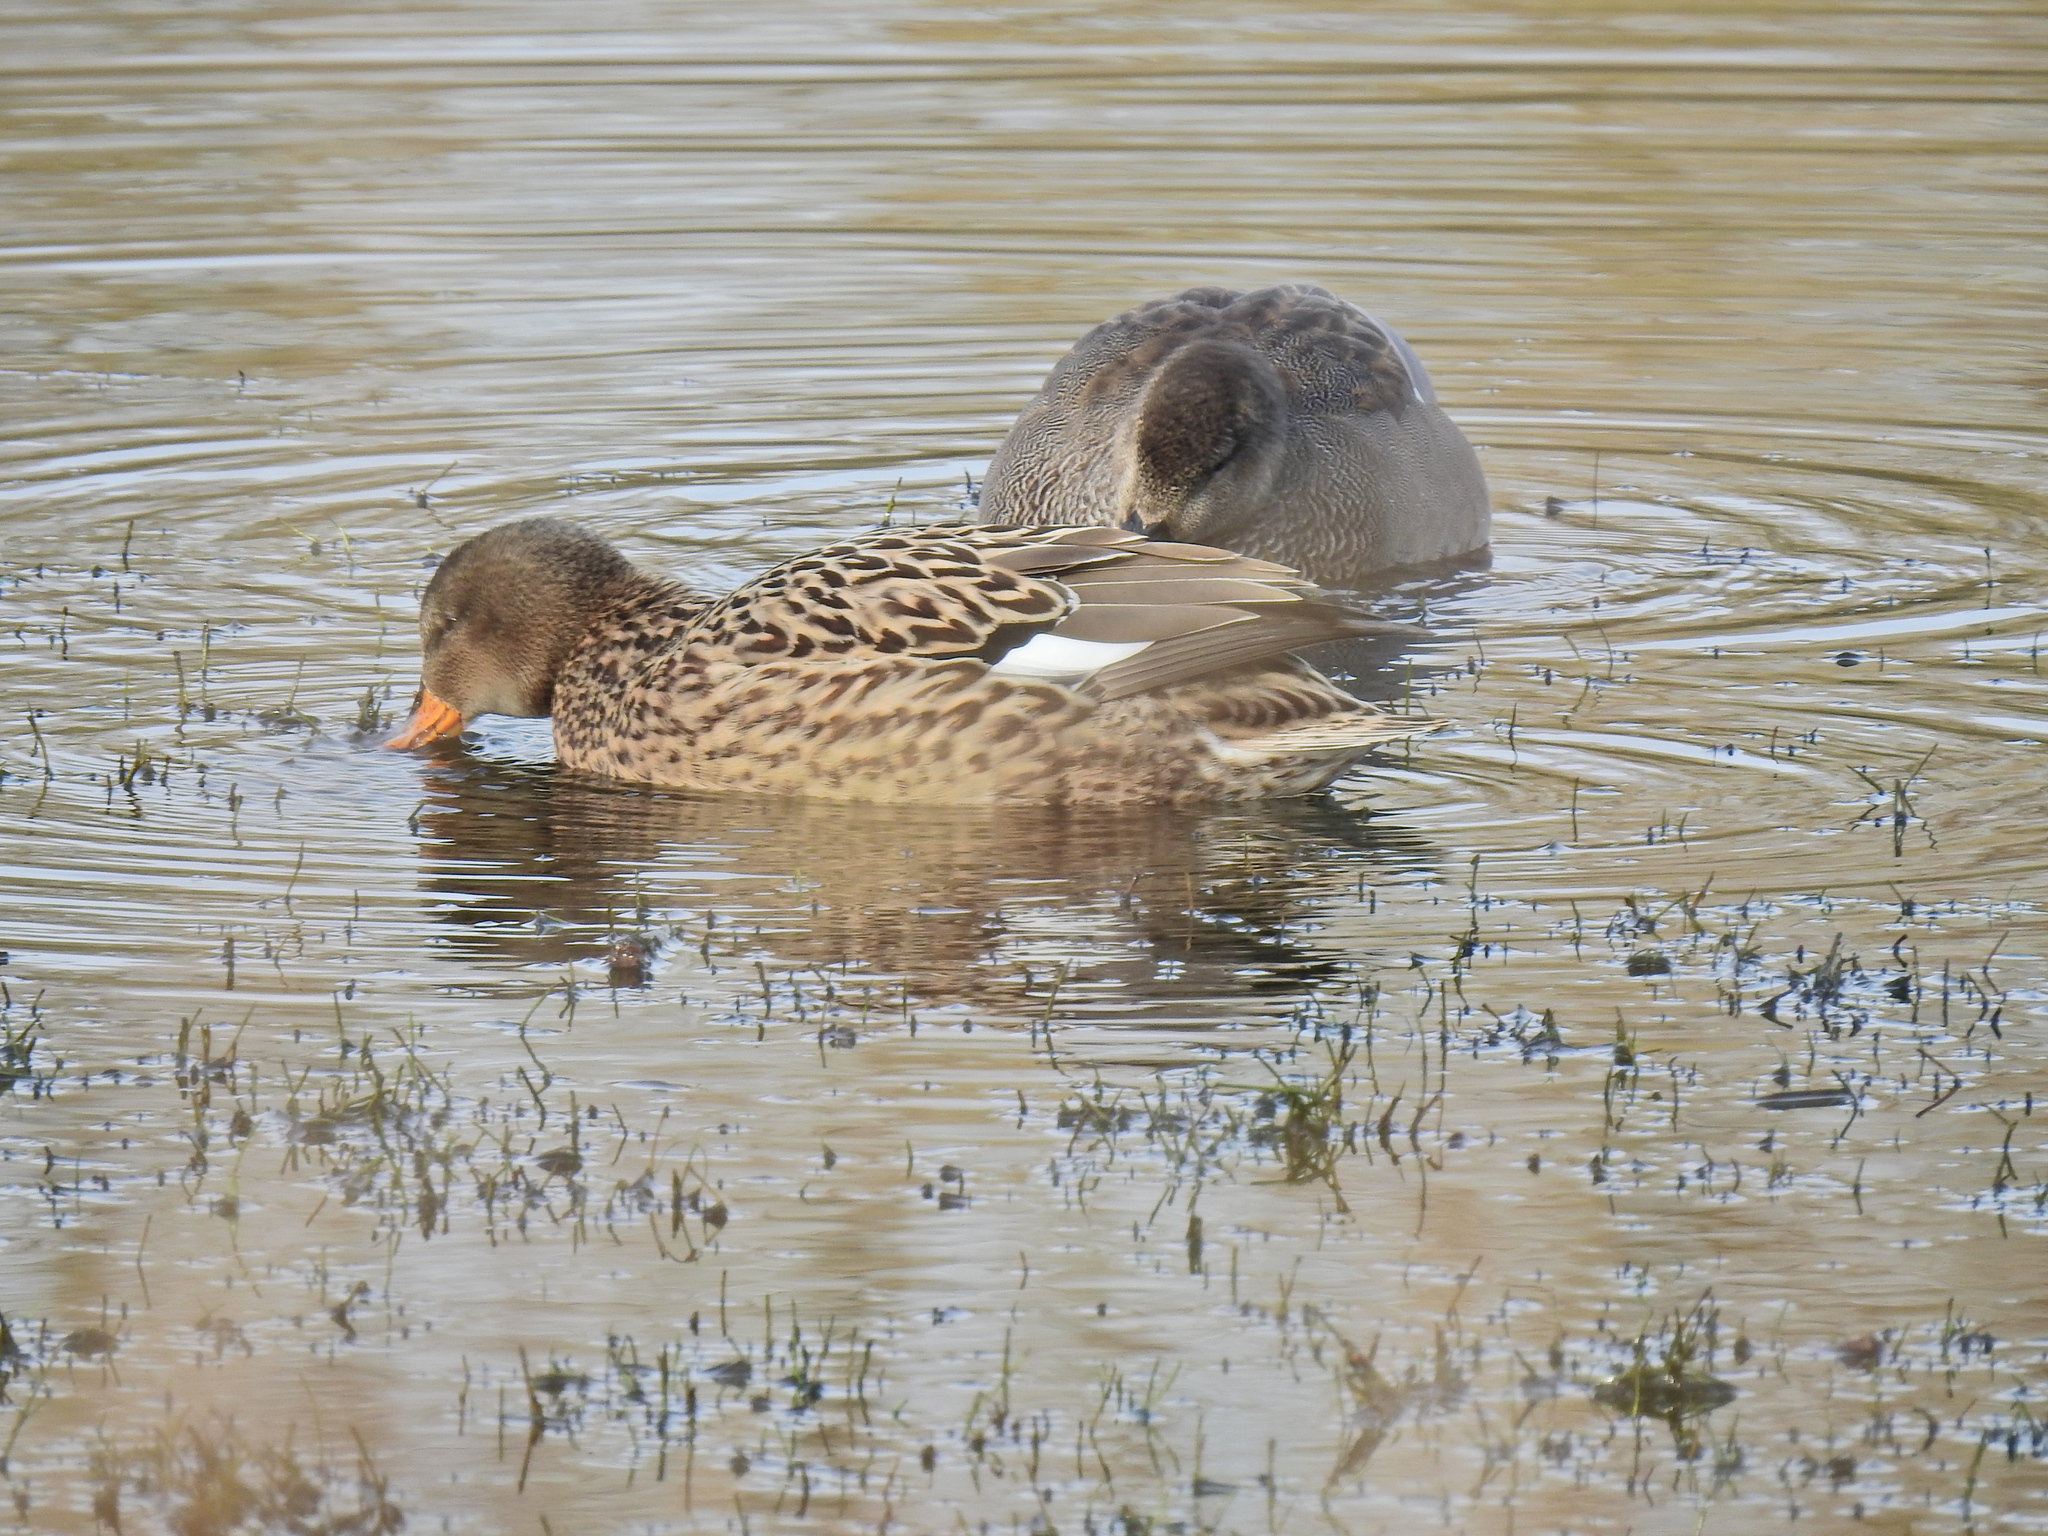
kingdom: Animalia
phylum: Chordata
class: Aves
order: Anseriformes
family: Anatidae
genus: Mareca
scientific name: Mareca strepera
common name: Gadwall
